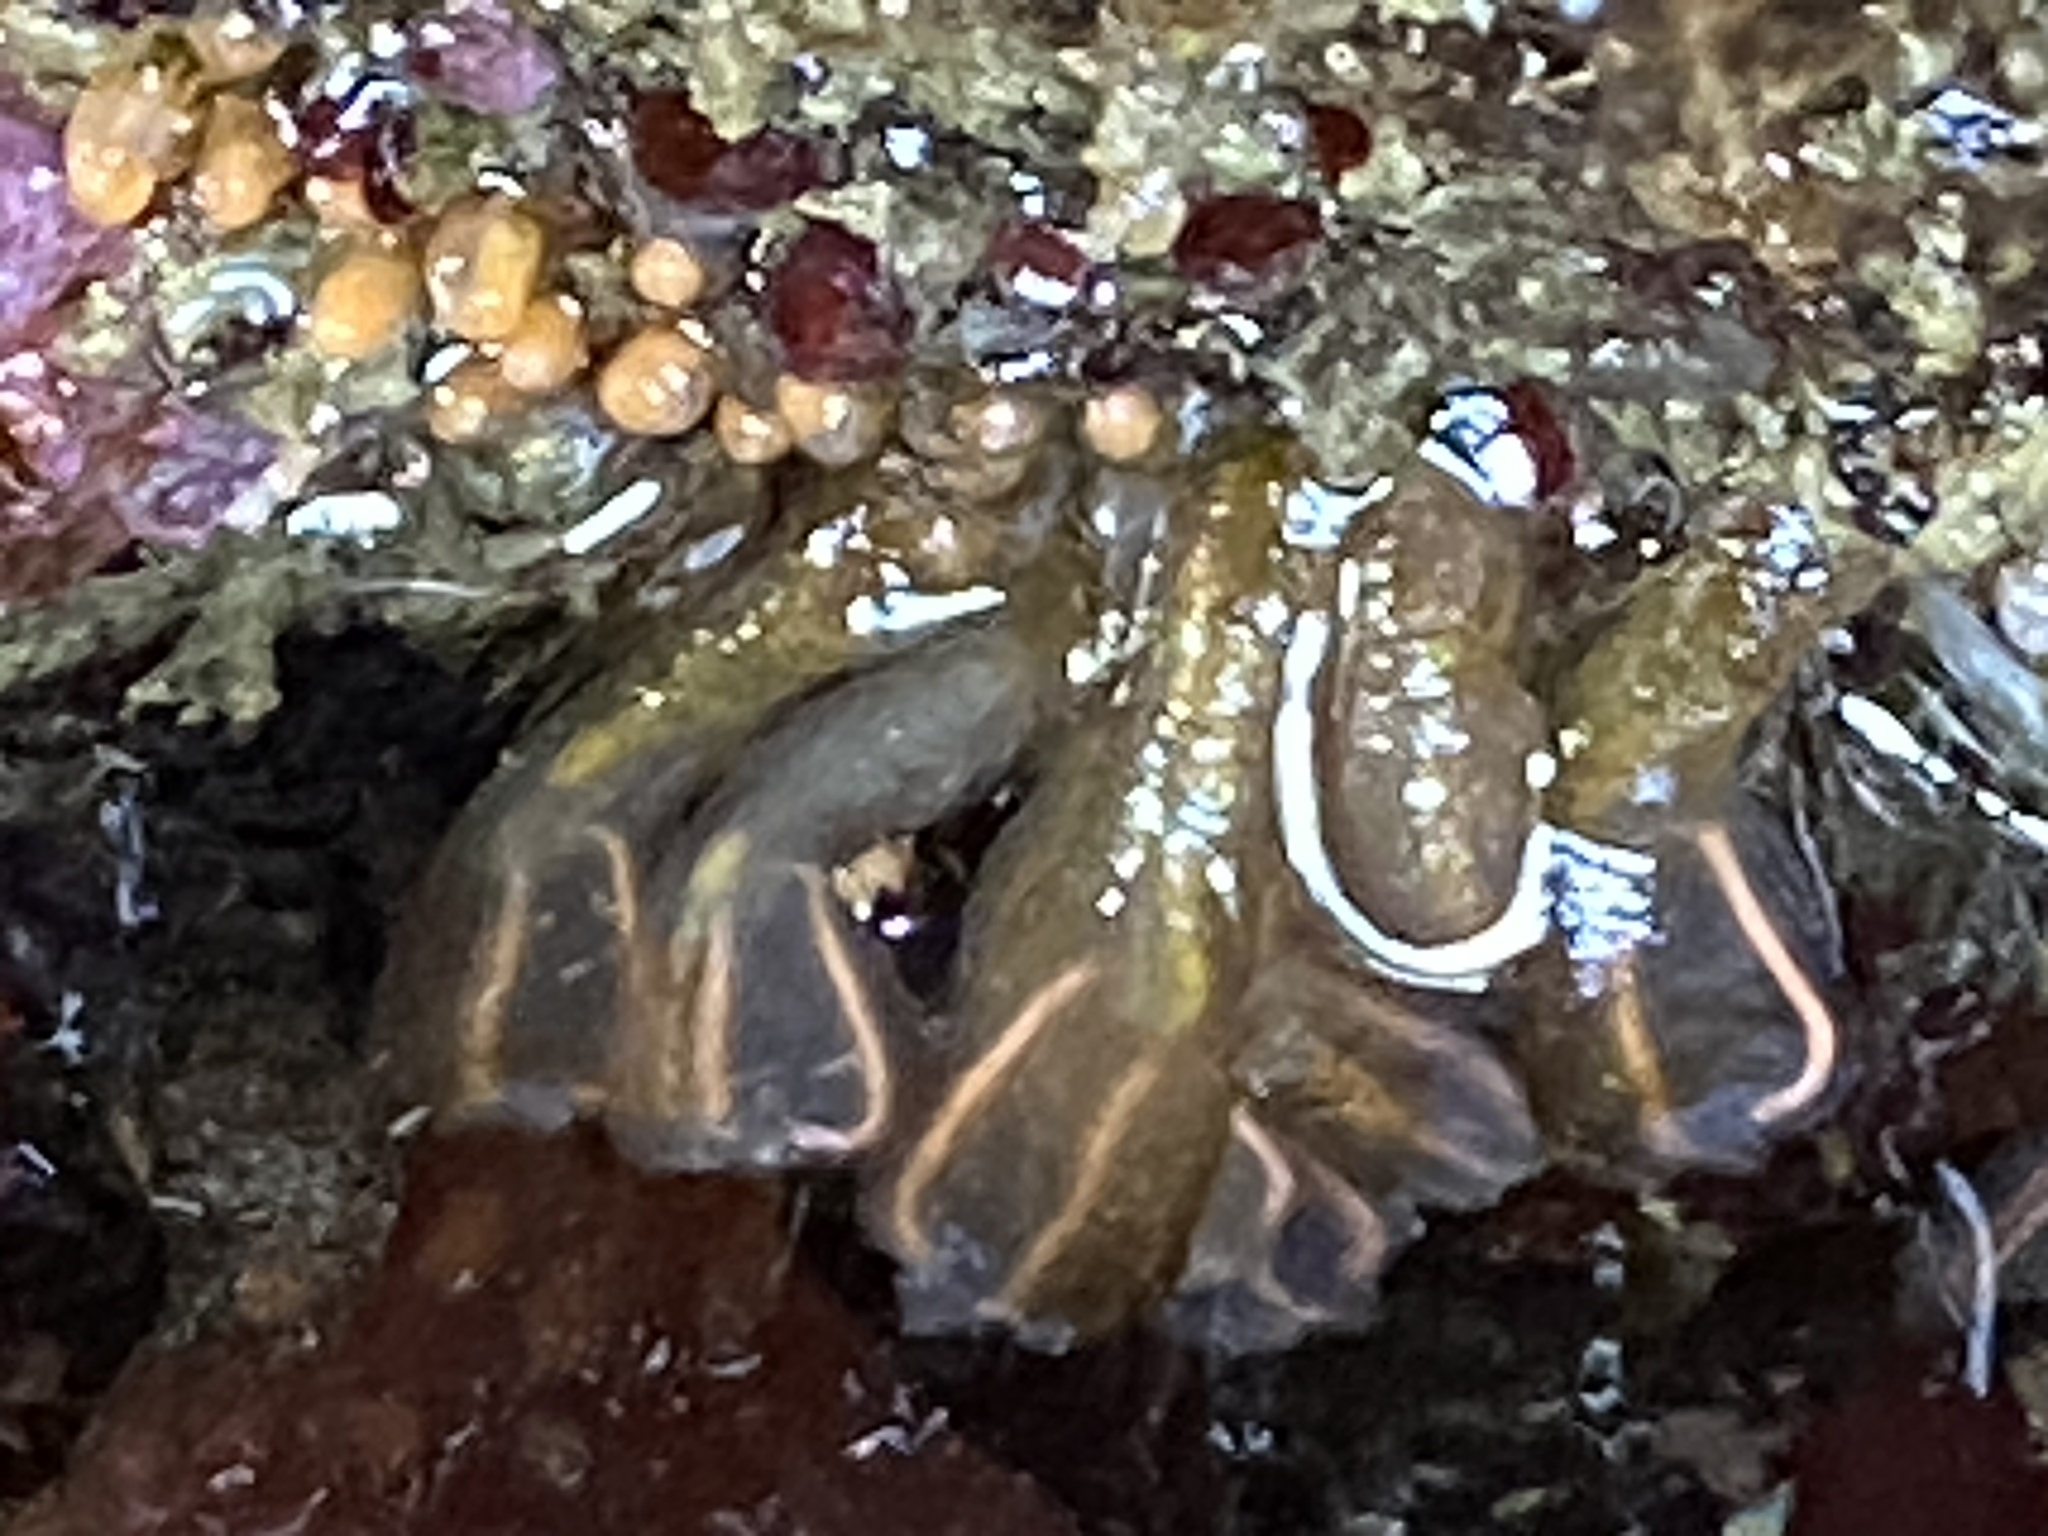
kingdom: Animalia
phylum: Chordata
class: Ascidiacea
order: Aplousobranchia
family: Clavelinidae
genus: Clavelina
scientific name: Clavelina huntsmani
